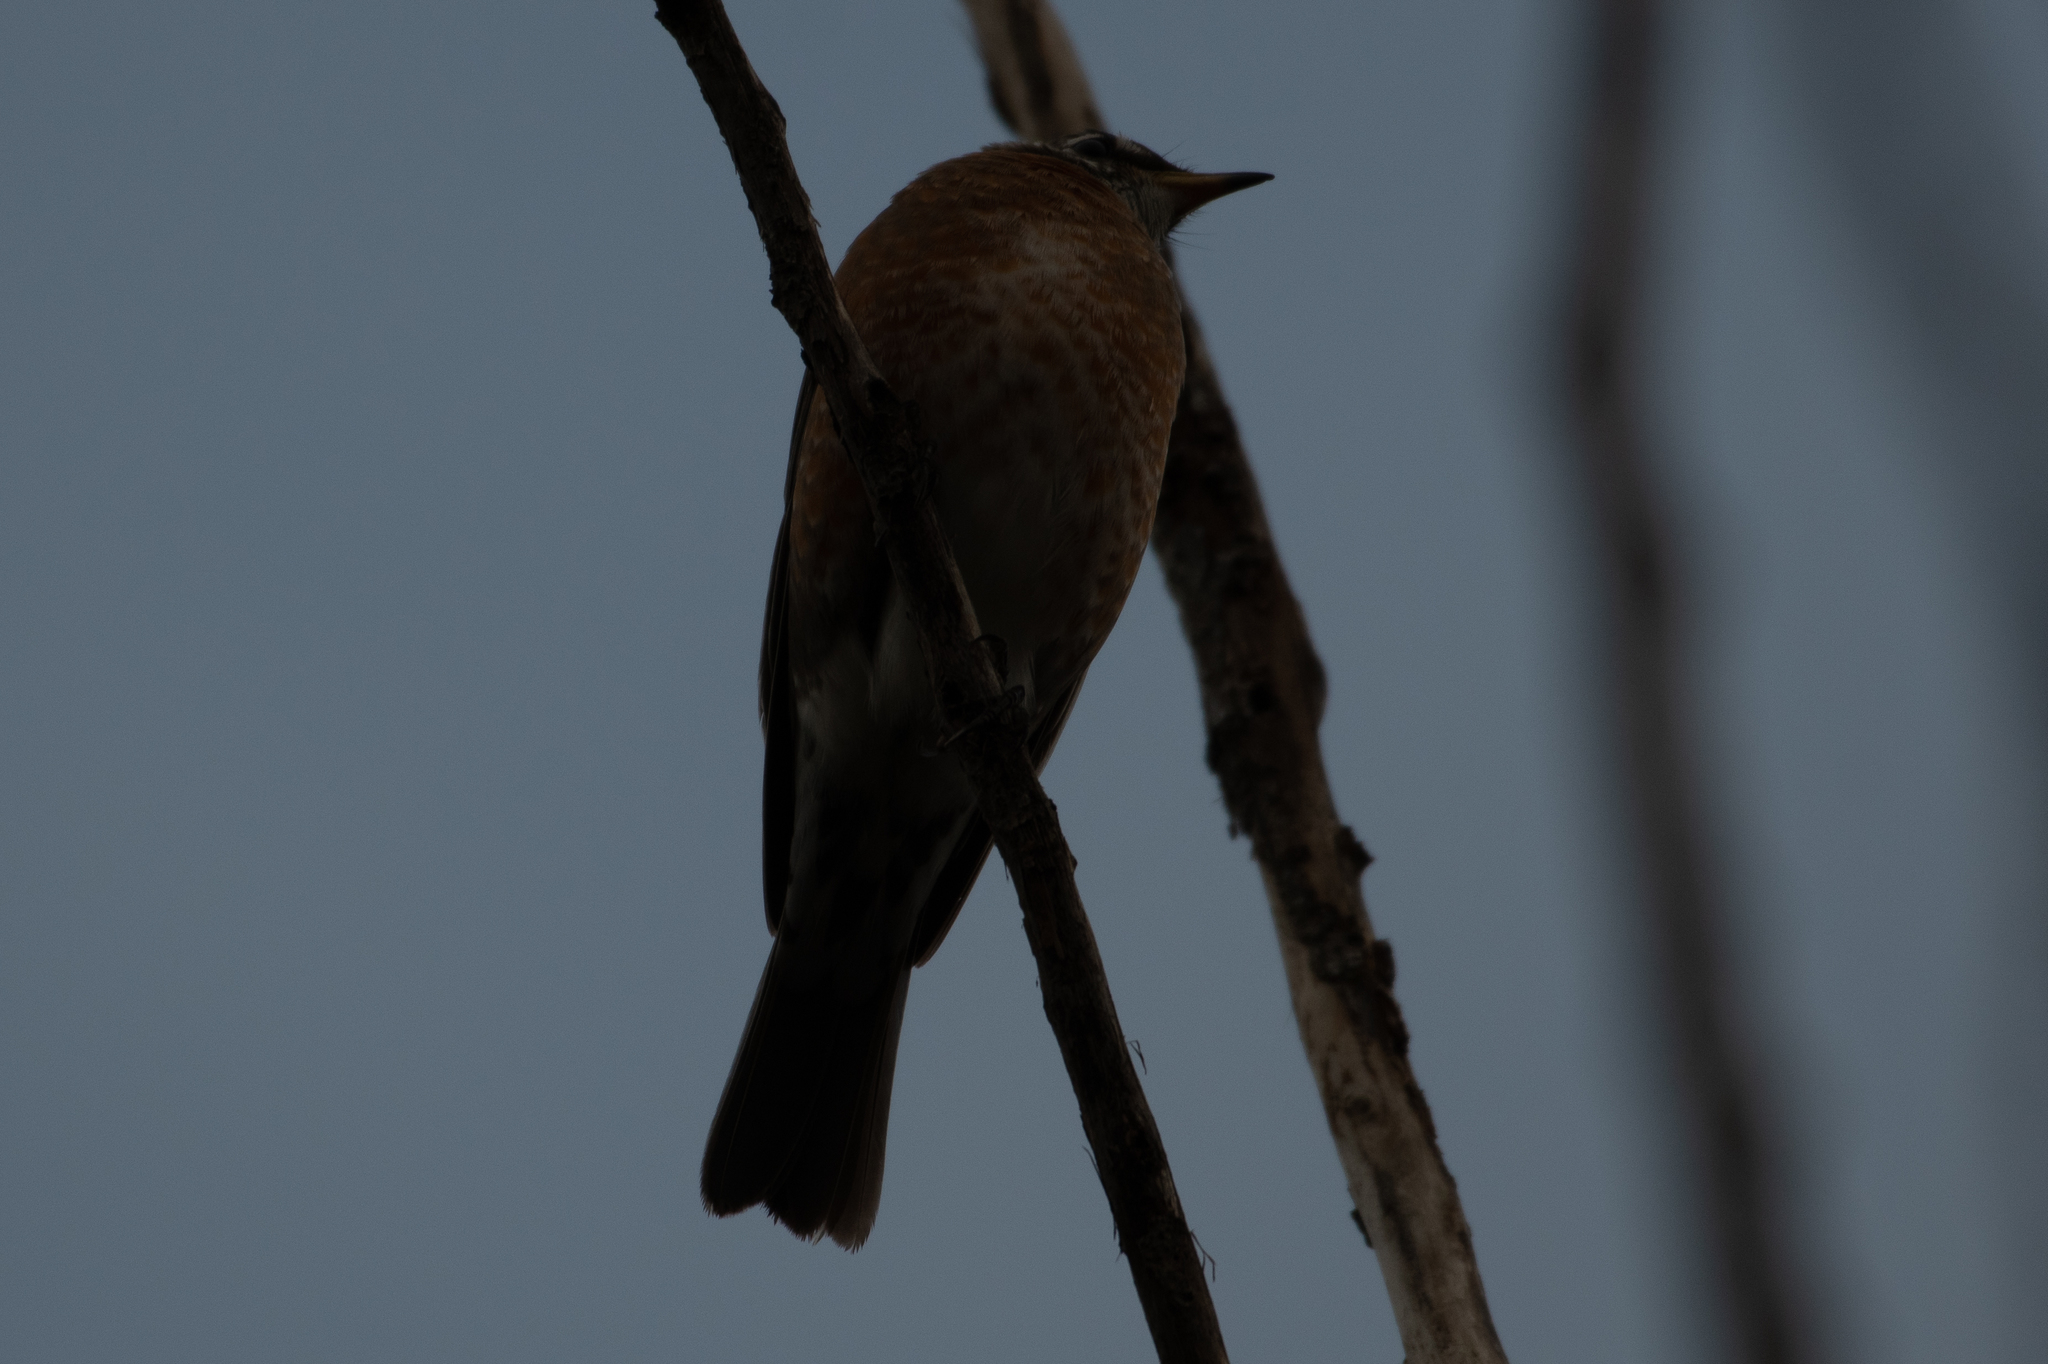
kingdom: Animalia
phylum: Chordata
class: Aves
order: Passeriformes
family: Turdidae
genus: Turdus
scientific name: Turdus migratorius
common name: American robin
